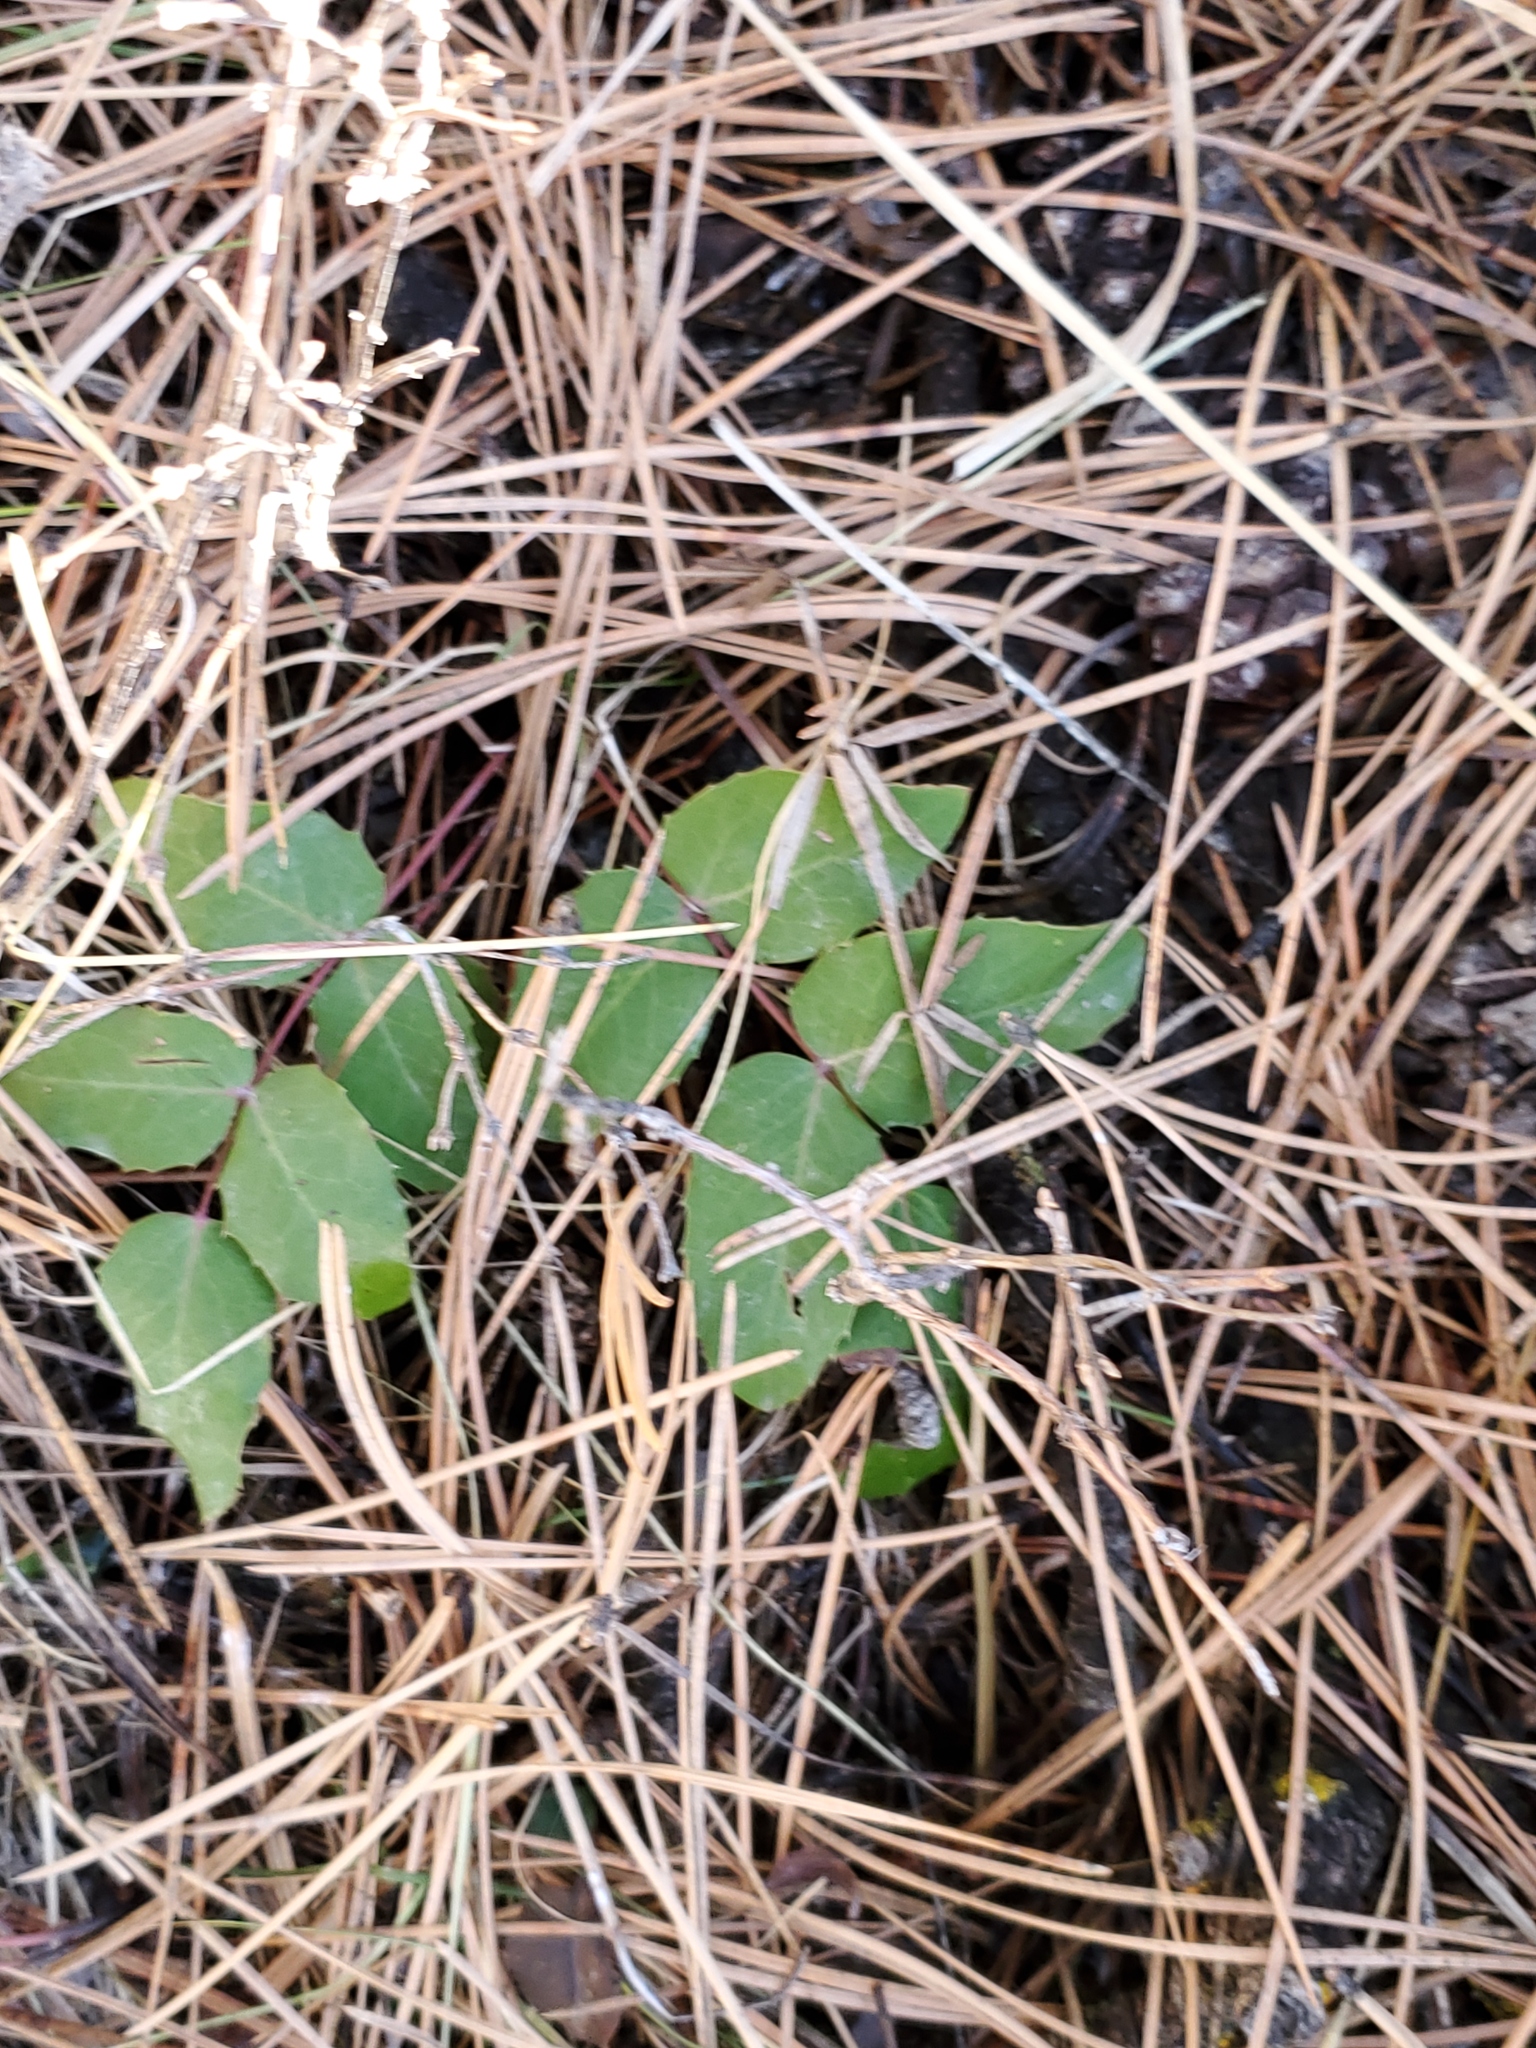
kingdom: Plantae
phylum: Tracheophyta
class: Magnoliopsida
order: Ranunculales
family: Berberidaceae
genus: Mahonia
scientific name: Mahonia repens
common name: Creeping oregon-grape
